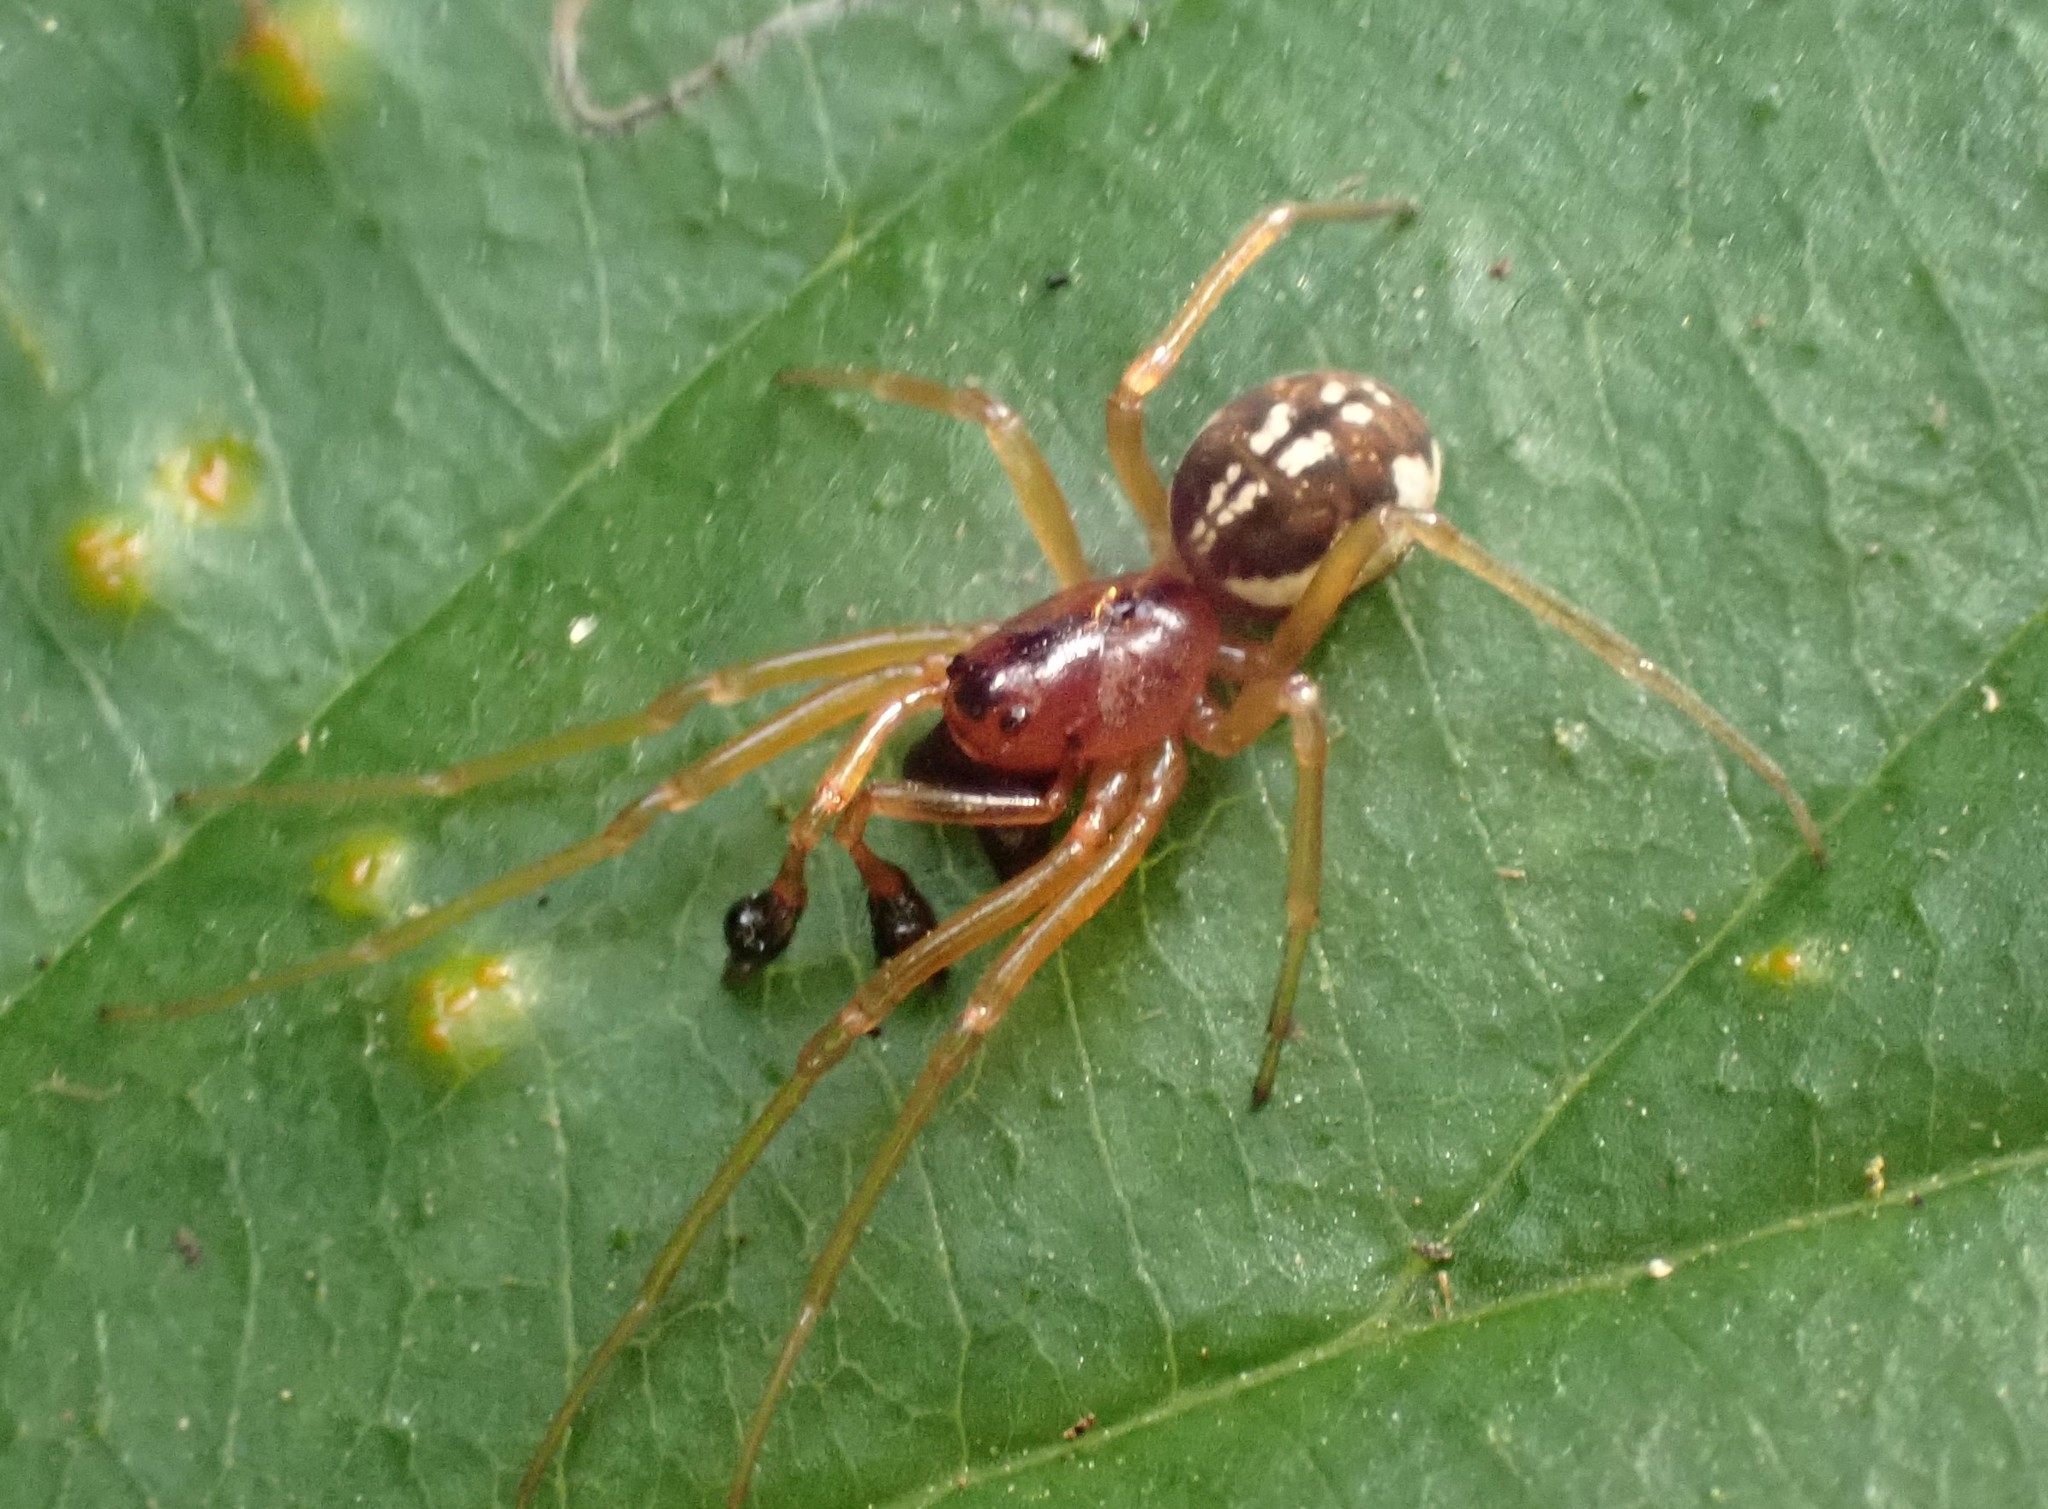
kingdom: Animalia
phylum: Arthropoda
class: Arachnida
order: Araneae
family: Tetragnathidae
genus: Pachygnatha
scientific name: Pachygnatha listeri
